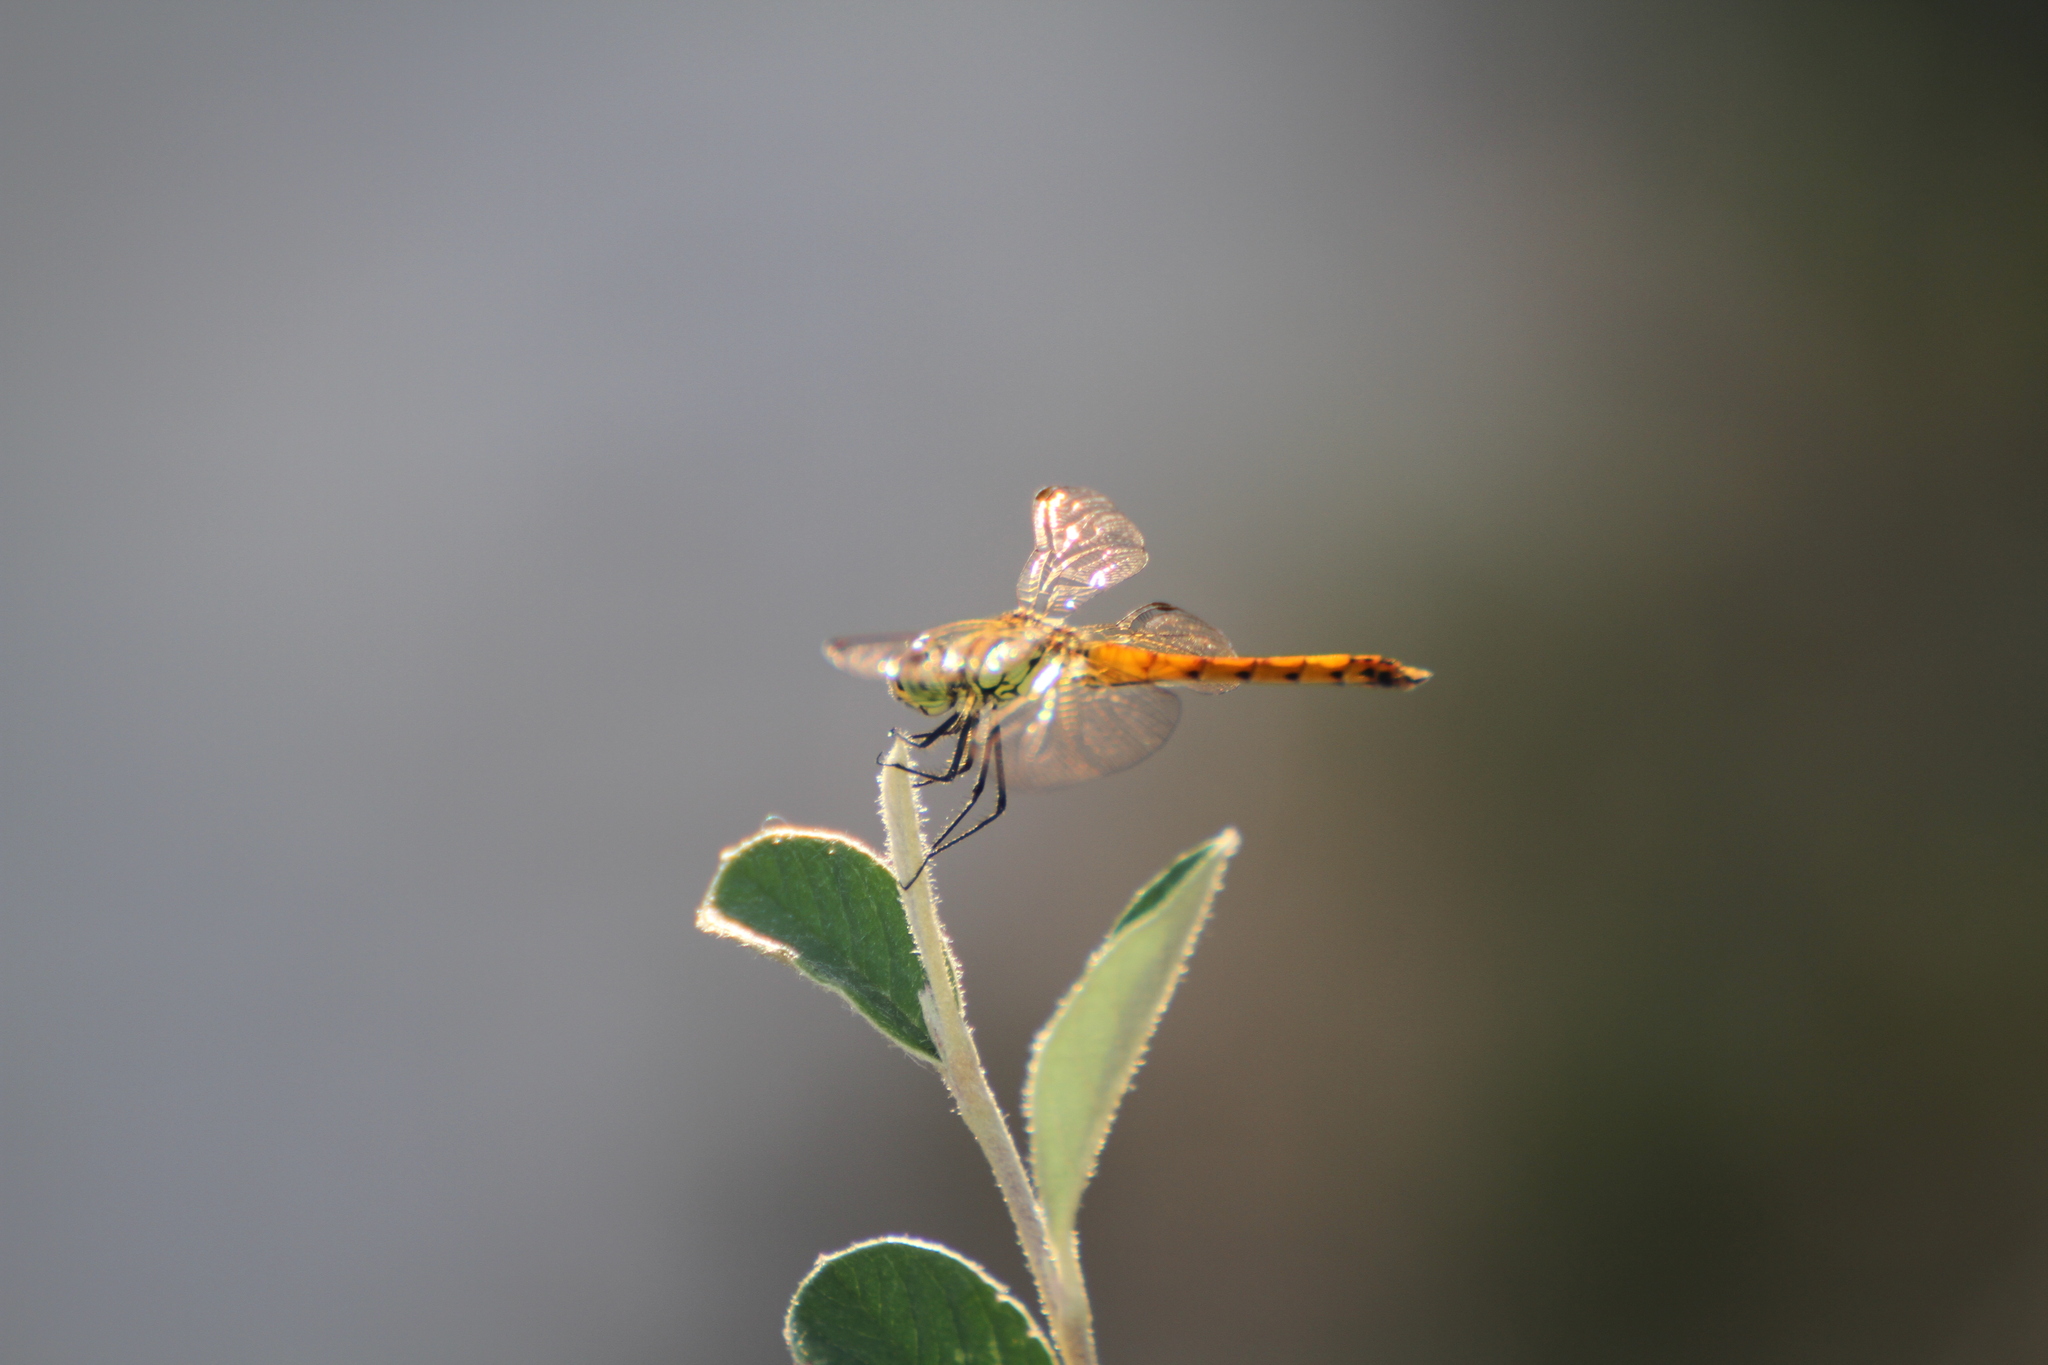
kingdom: Animalia
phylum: Arthropoda
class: Insecta
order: Odonata
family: Libellulidae
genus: Sympetrum
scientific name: Sympetrum depressiusculum
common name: Spotted darter
